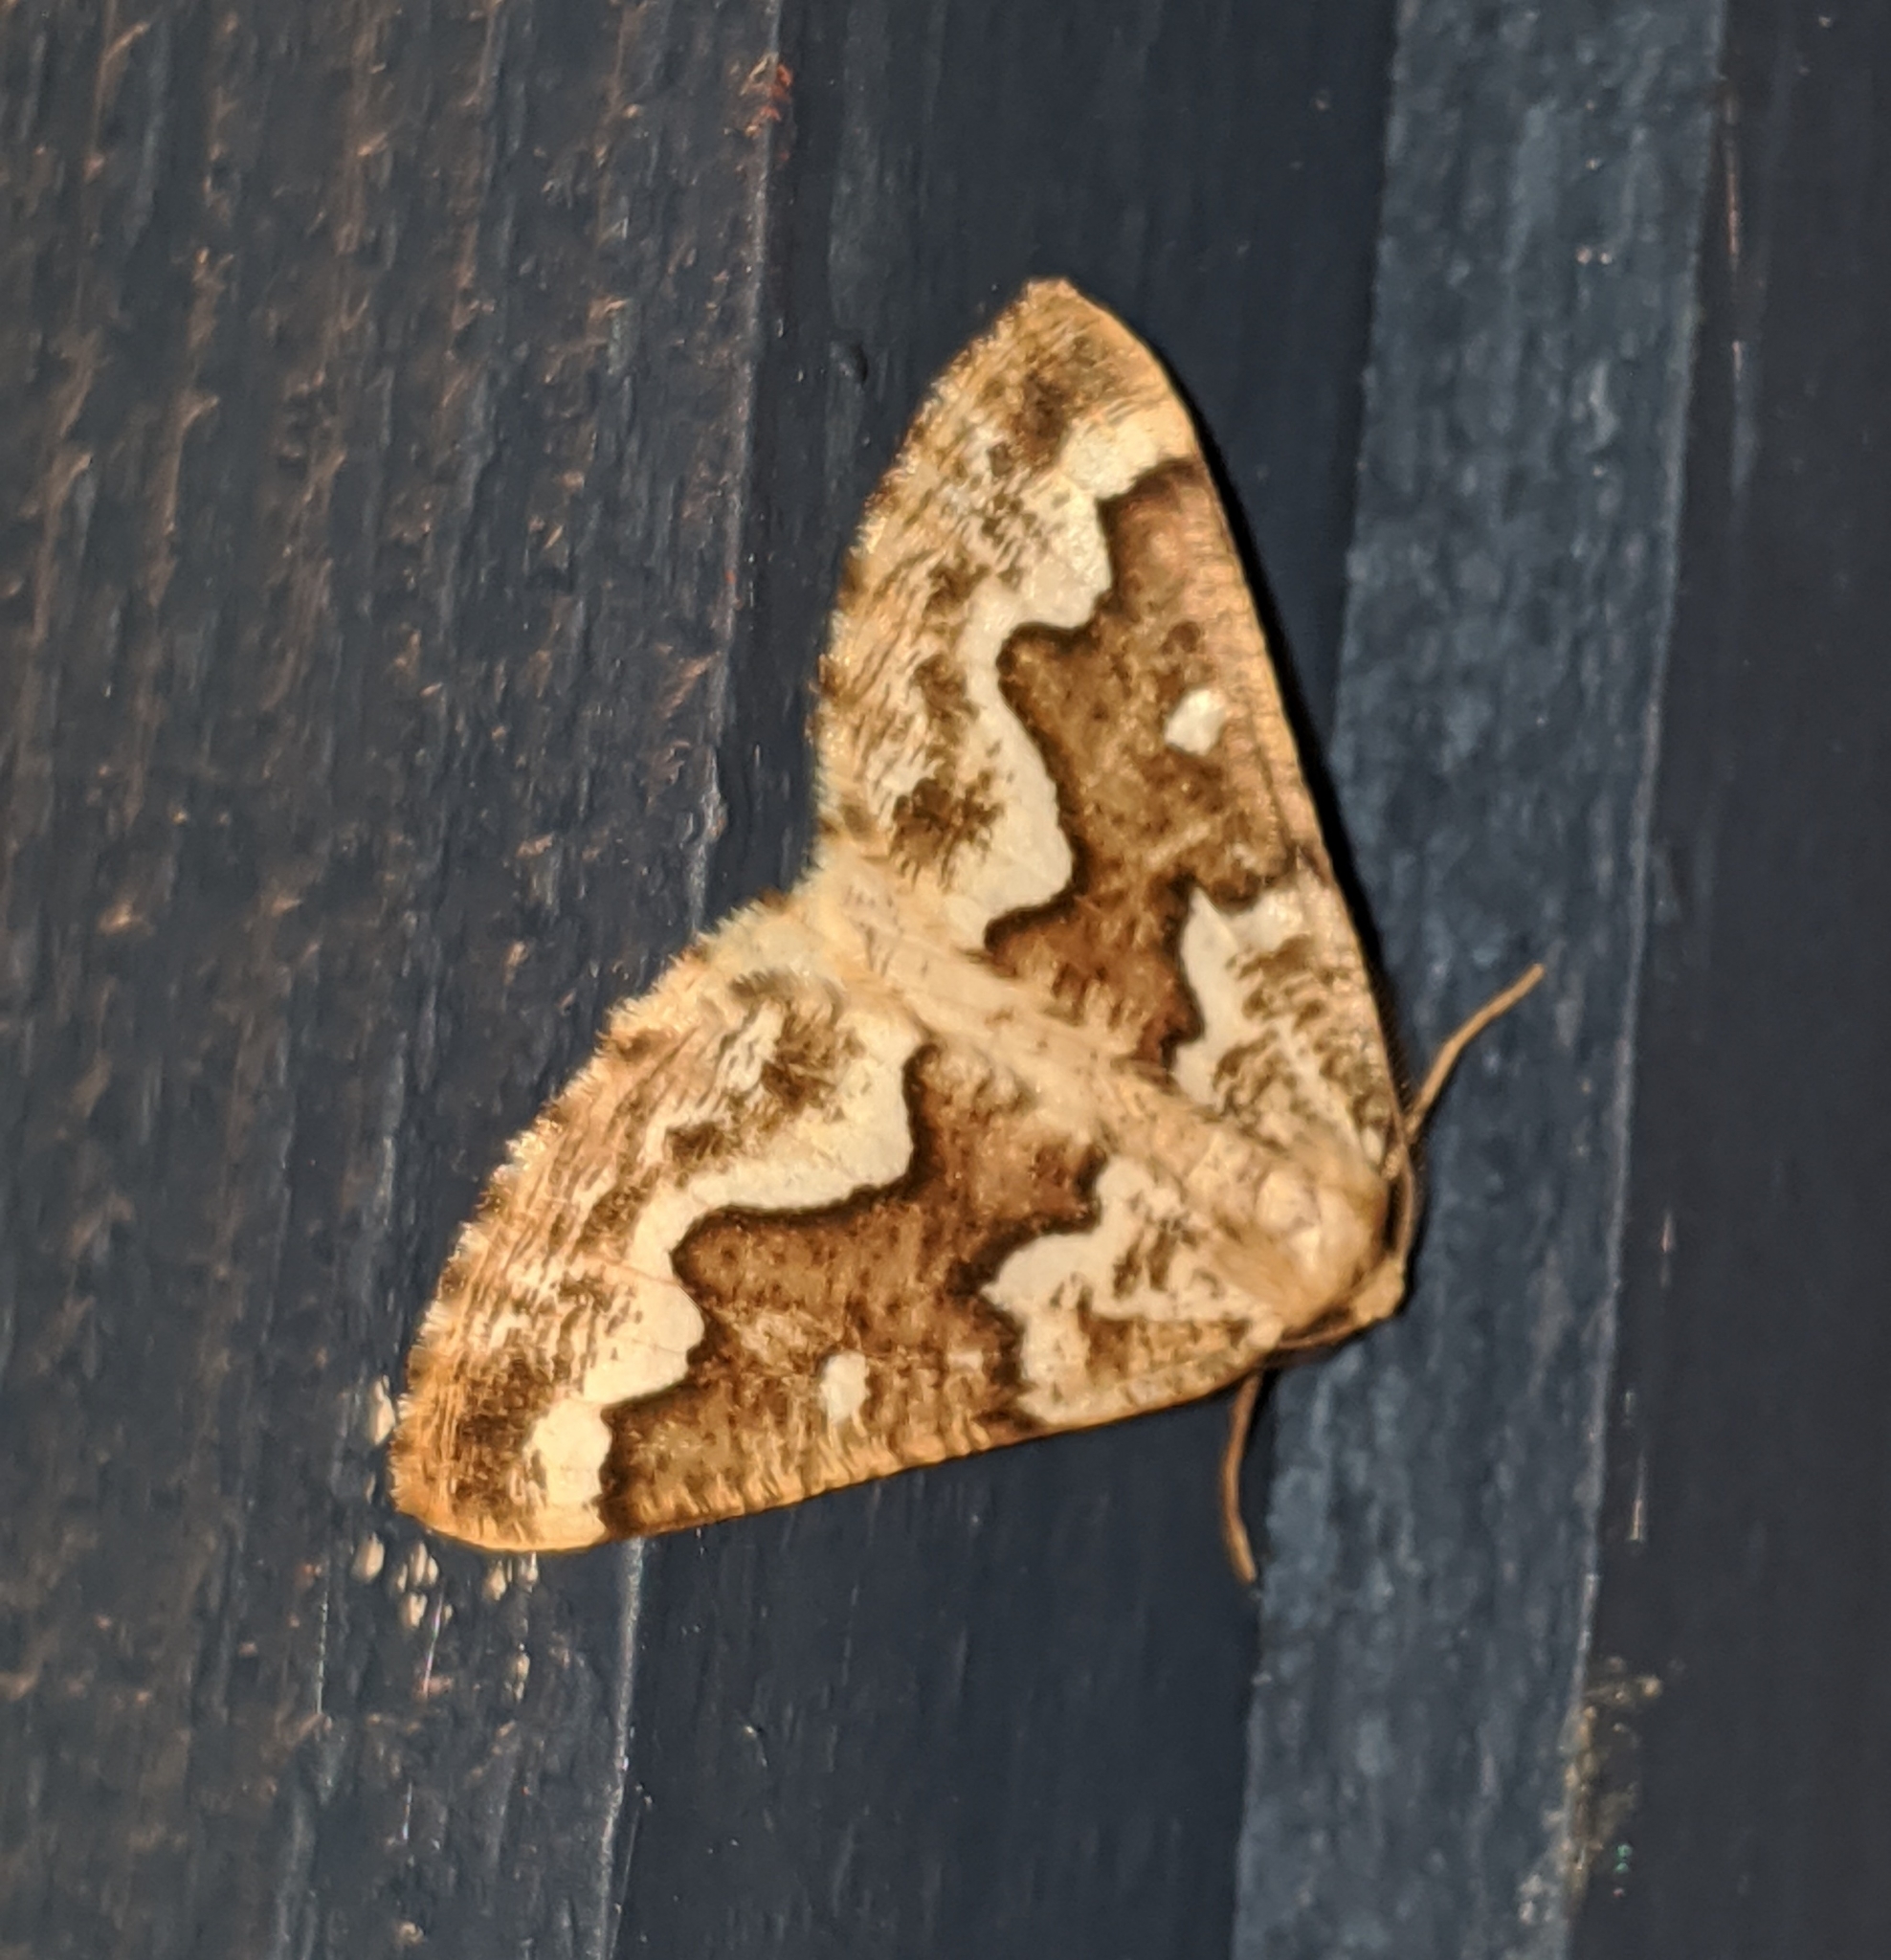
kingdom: Animalia
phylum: Arthropoda
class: Insecta
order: Lepidoptera
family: Geometridae
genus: Caripeta
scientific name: Caripeta divisata
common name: Gray spruce looper
